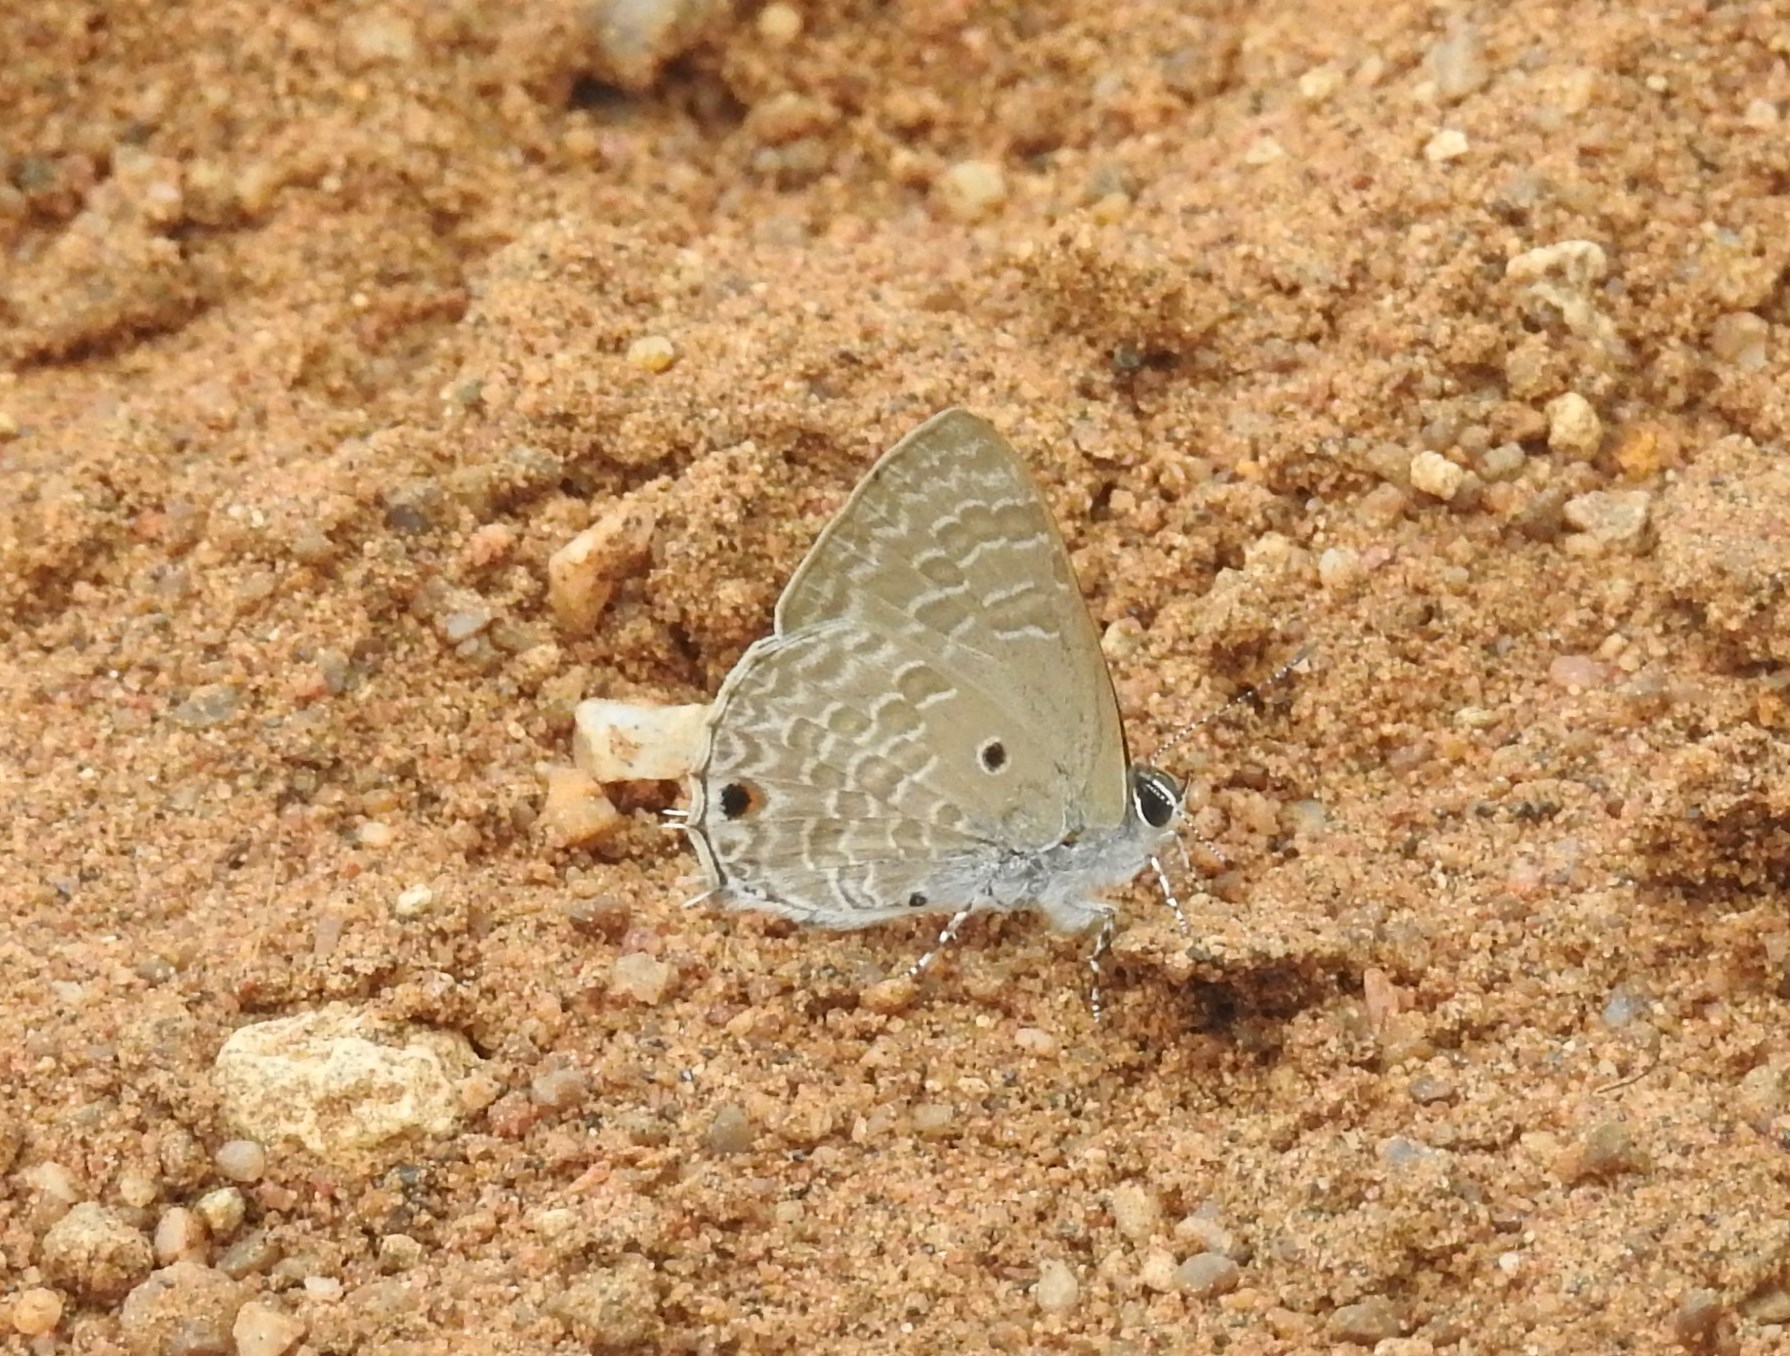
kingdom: Animalia
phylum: Arthropoda
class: Insecta
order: Lepidoptera
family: Lycaenidae
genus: Anthene
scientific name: Anthene lycaenina
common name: Pointed ciliate blue
